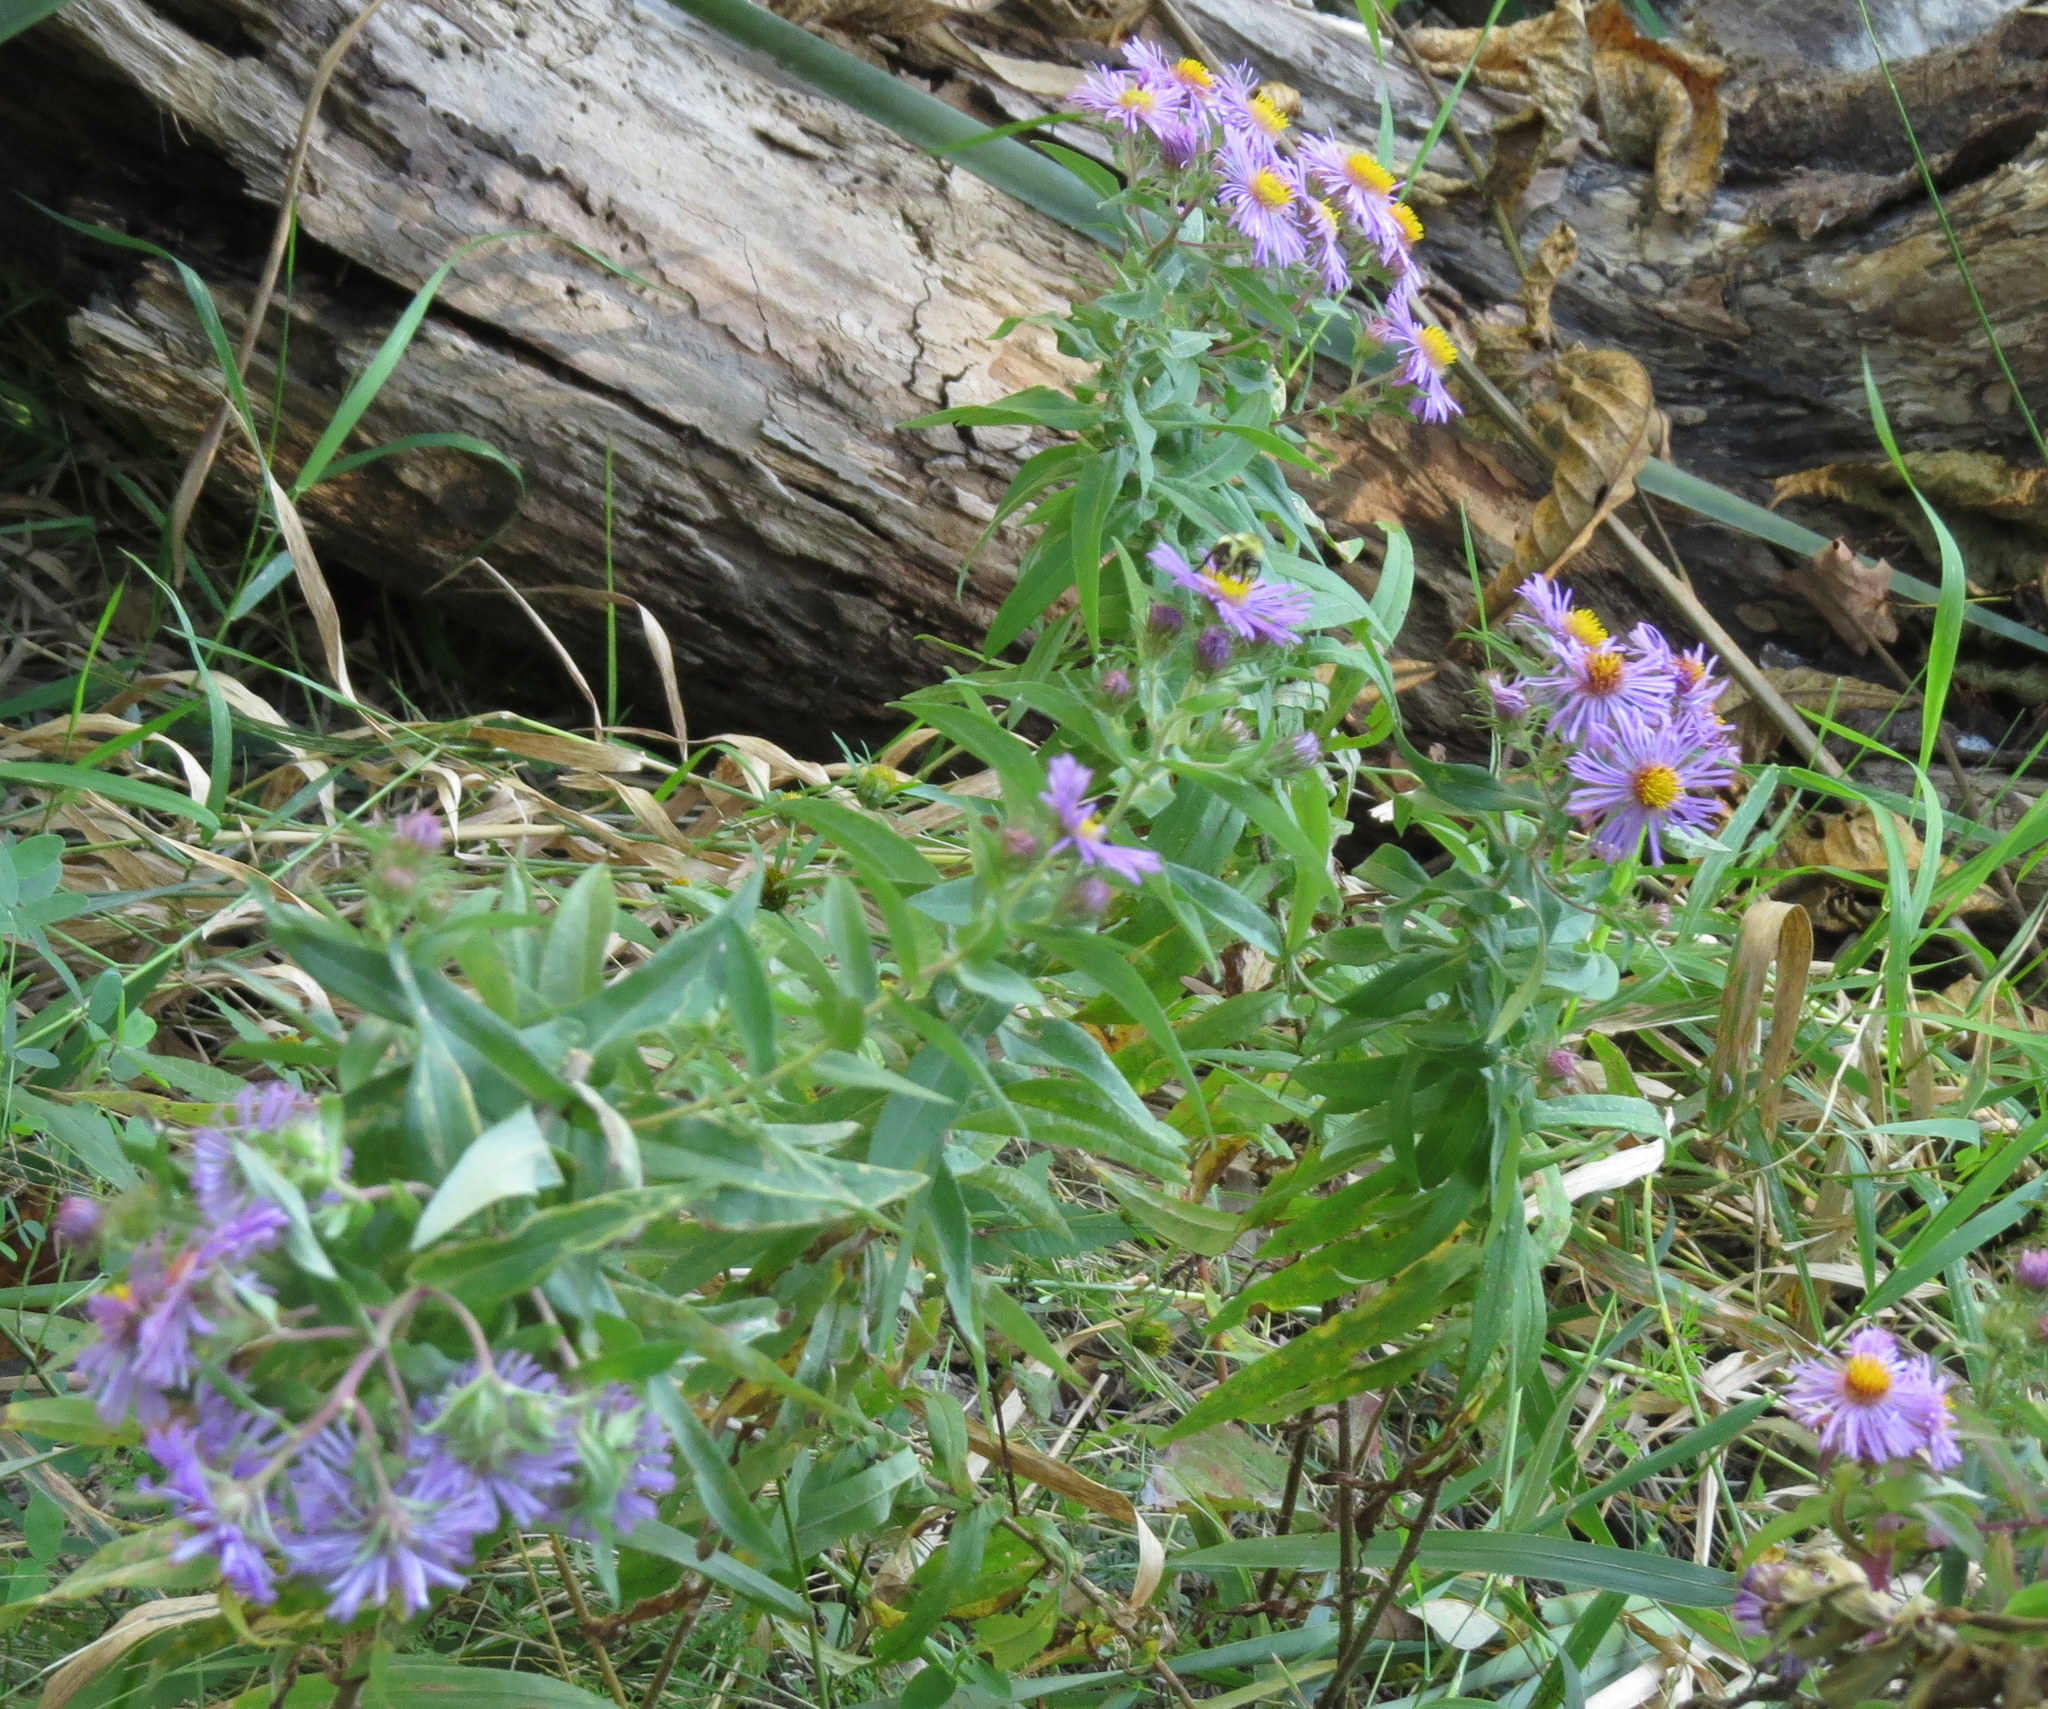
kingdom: Plantae
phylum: Tracheophyta
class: Magnoliopsida
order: Asterales
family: Asteraceae
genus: Symphyotrichum
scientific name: Symphyotrichum novae-angliae
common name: Michaelmas daisy
